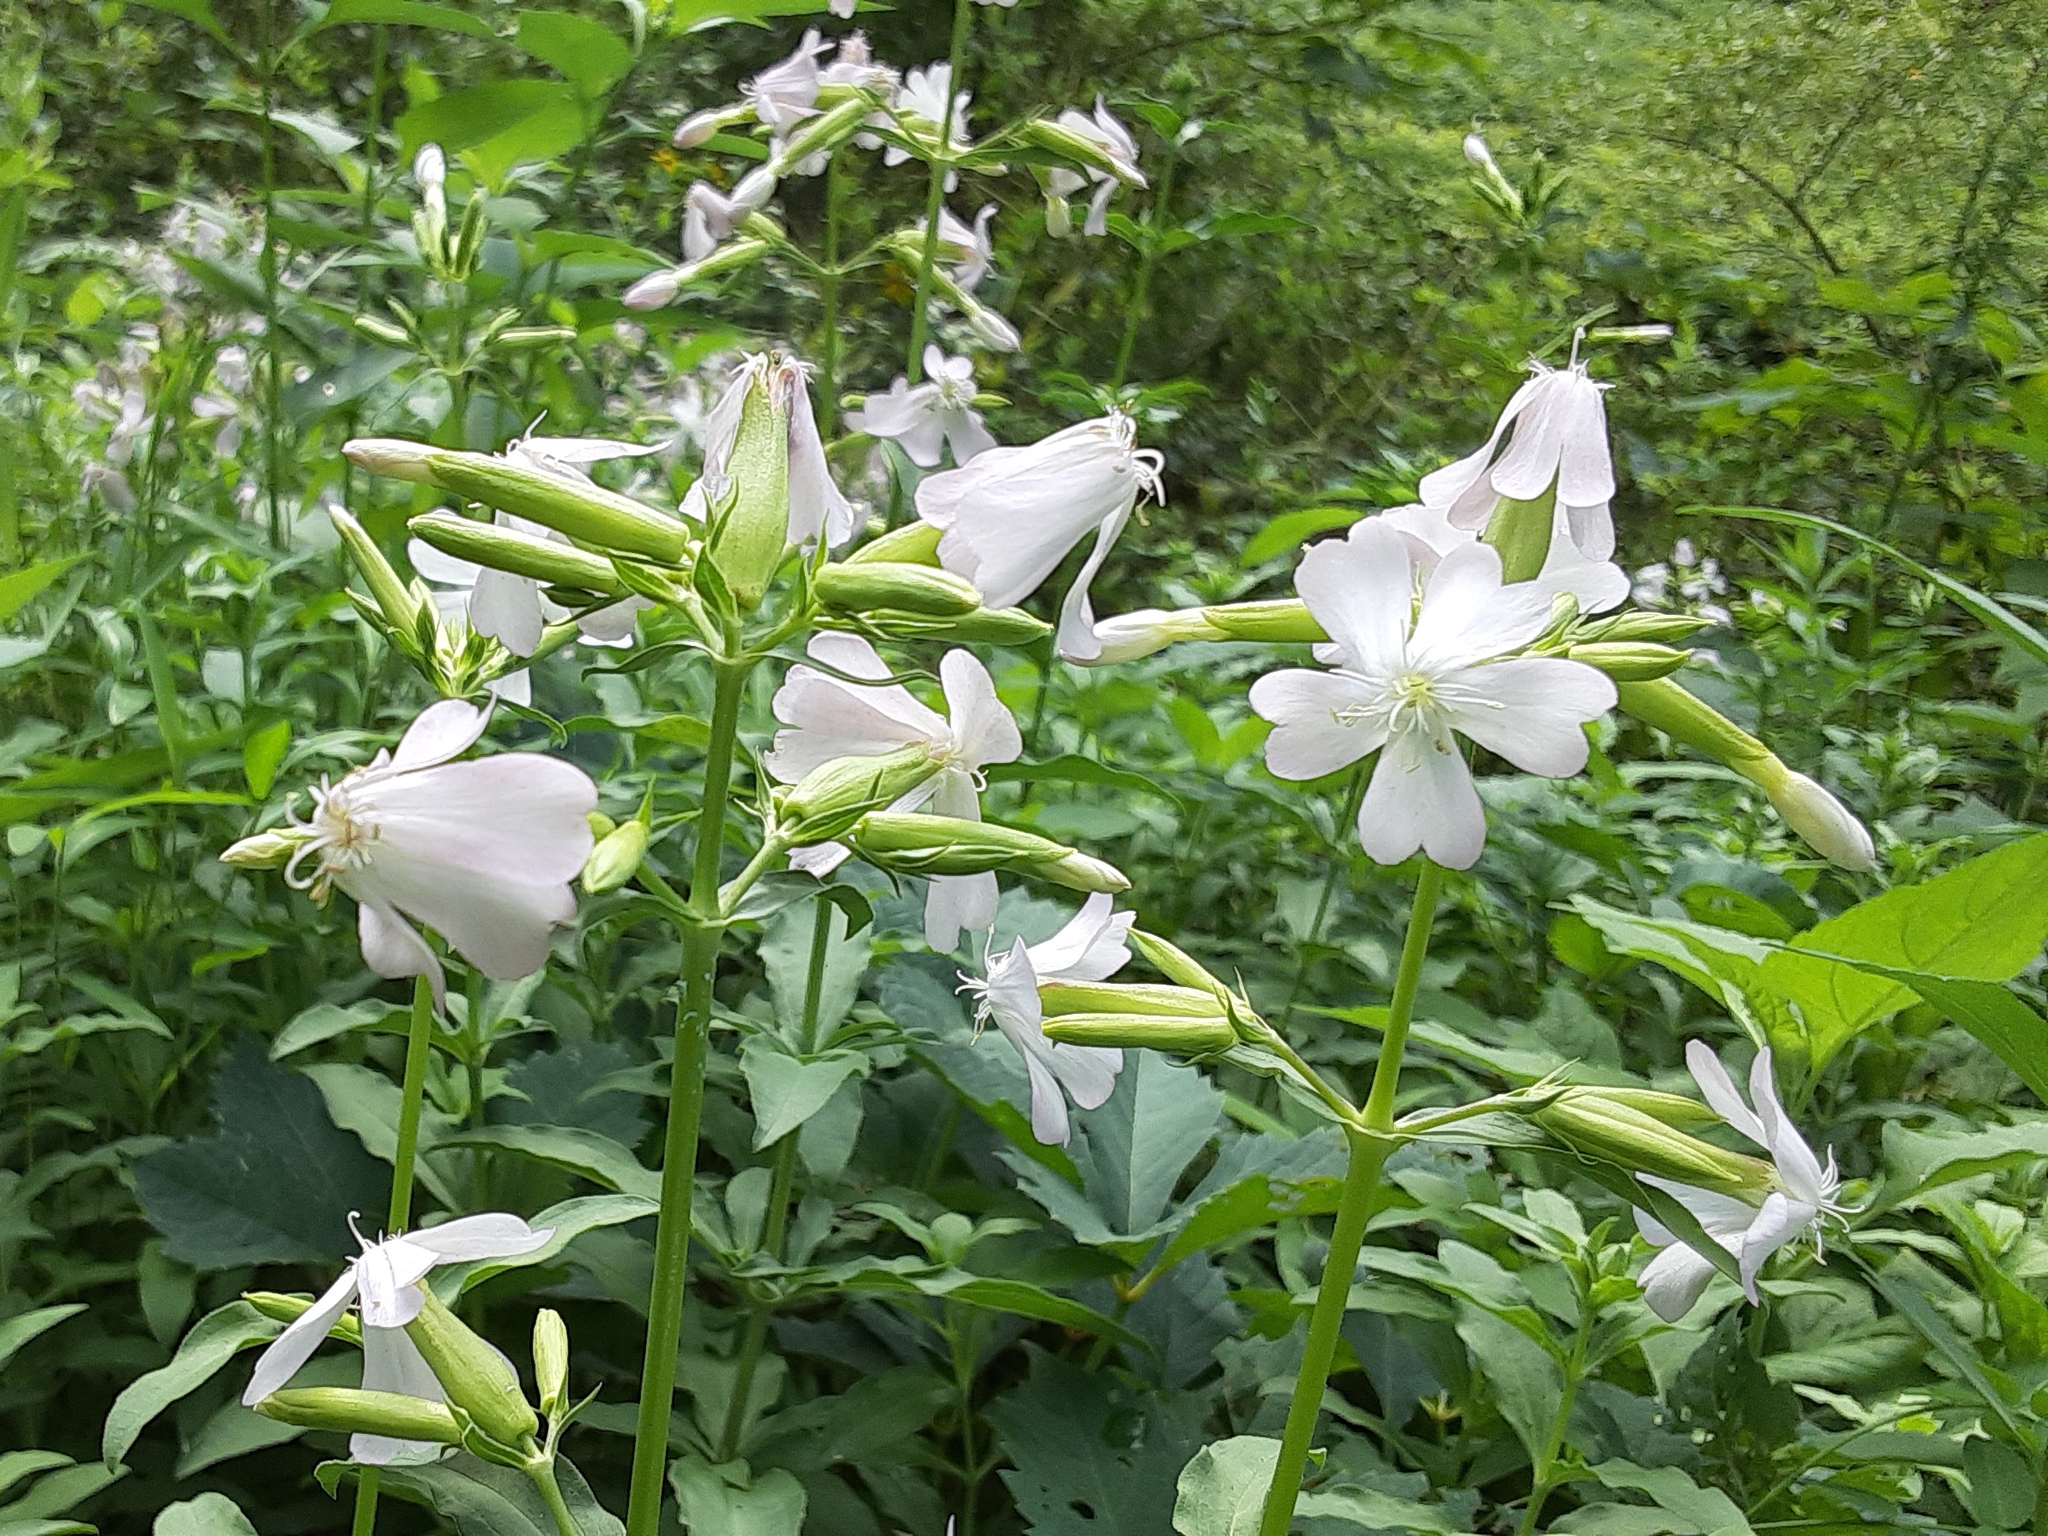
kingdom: Plantae
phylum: Tracheophyta
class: Magnoliopsida
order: Caryophyllales
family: Caryophyllaceae
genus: Saponaria
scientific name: Saponaria officinalis
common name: Soapwort
